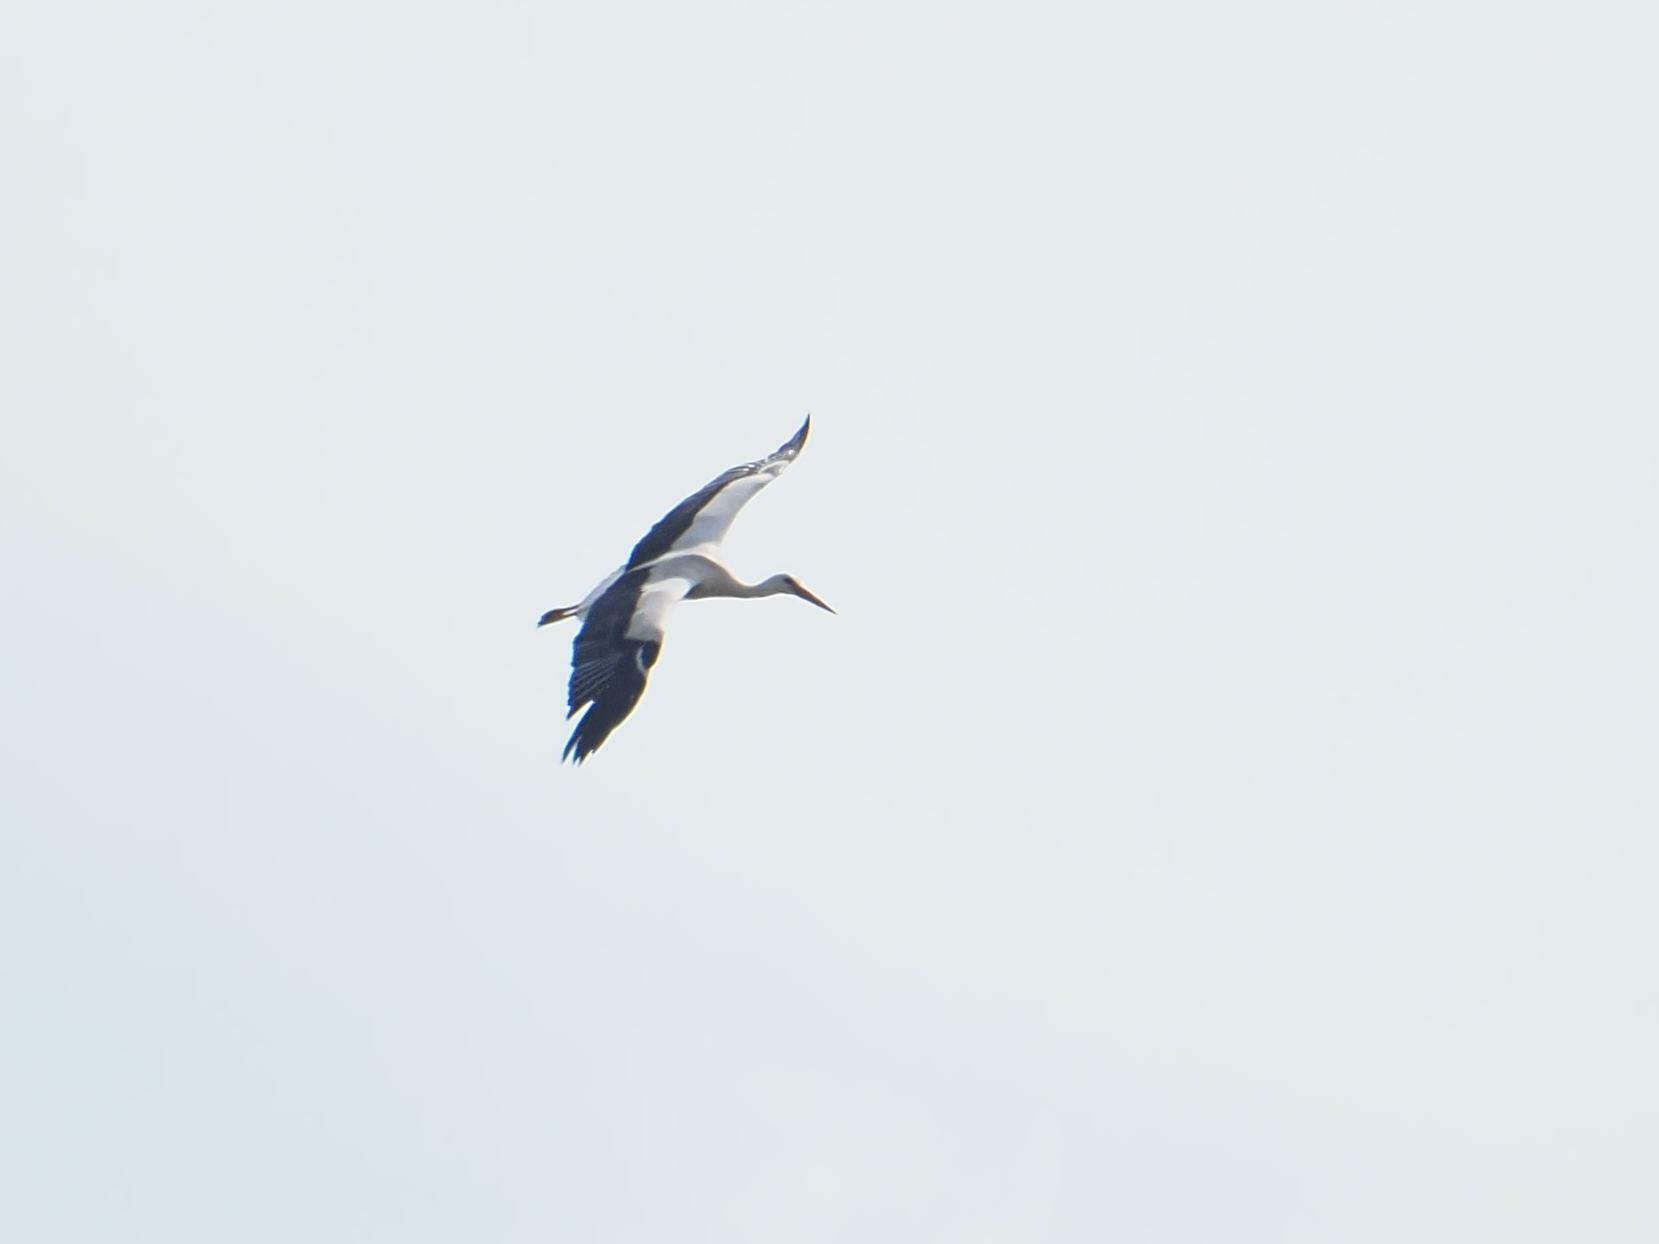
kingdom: Animalia
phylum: Chordata
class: Aves
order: Ciconiiformes
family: Ciconiidae
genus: Ciconia
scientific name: Ciconia ciconia
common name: White stork
